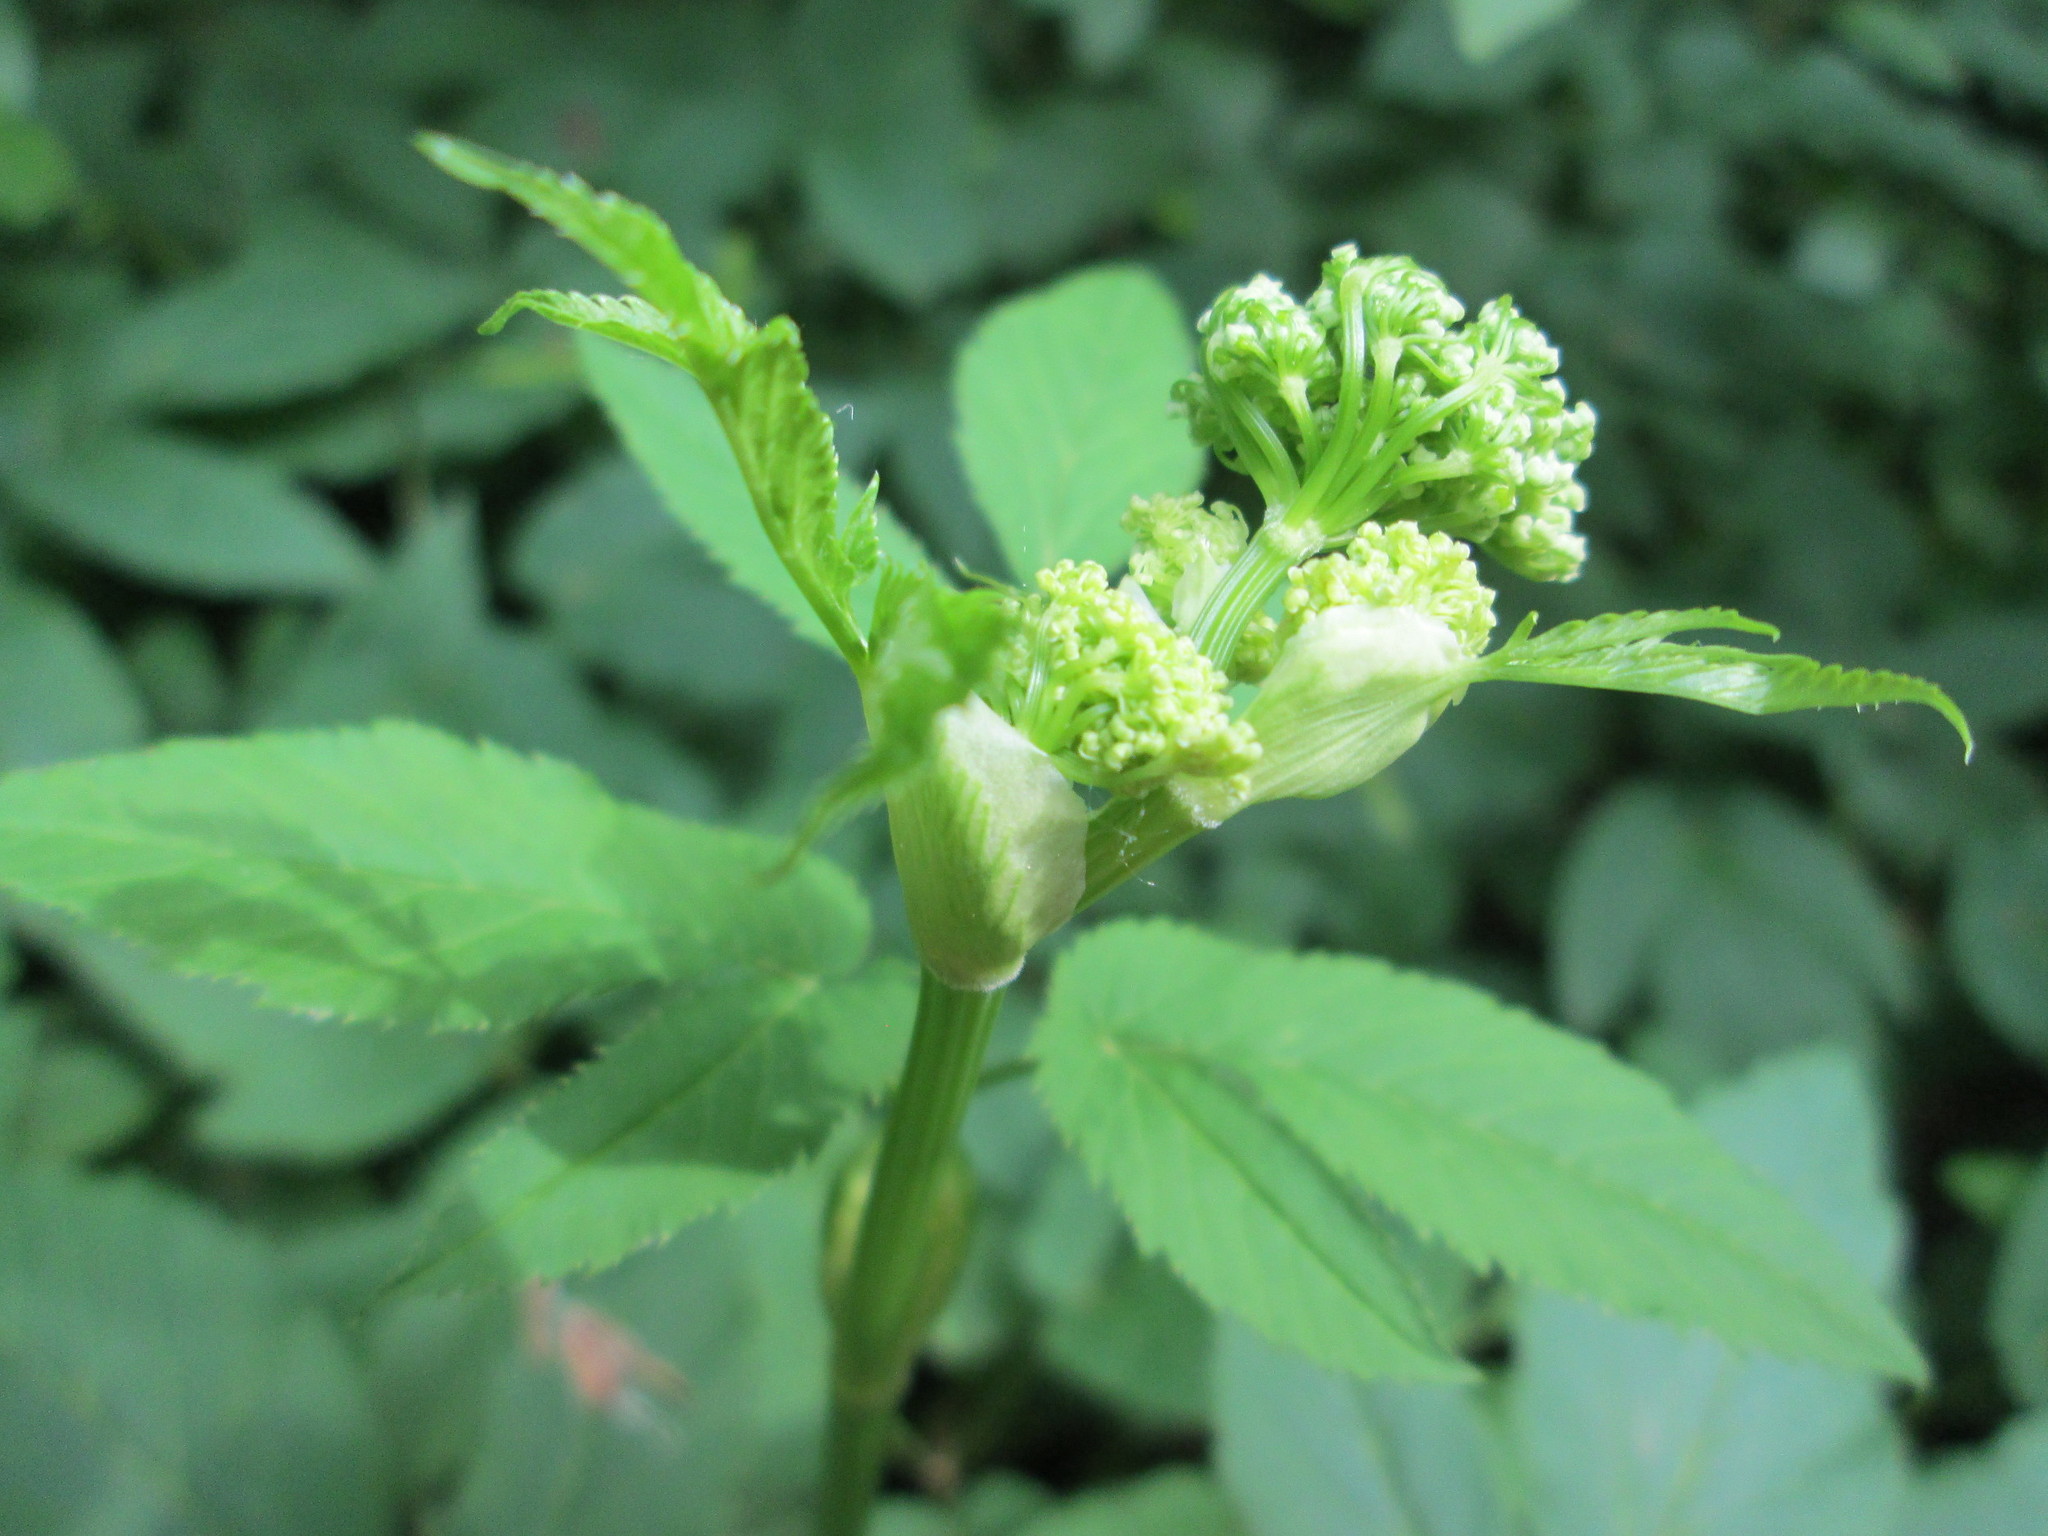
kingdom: Plantae
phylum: Tracheophyta
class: Magnoliopsida
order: Apiales
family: Apiaceae
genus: Aegopodium
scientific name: Aegopodium podagraria
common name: Ground-elder
